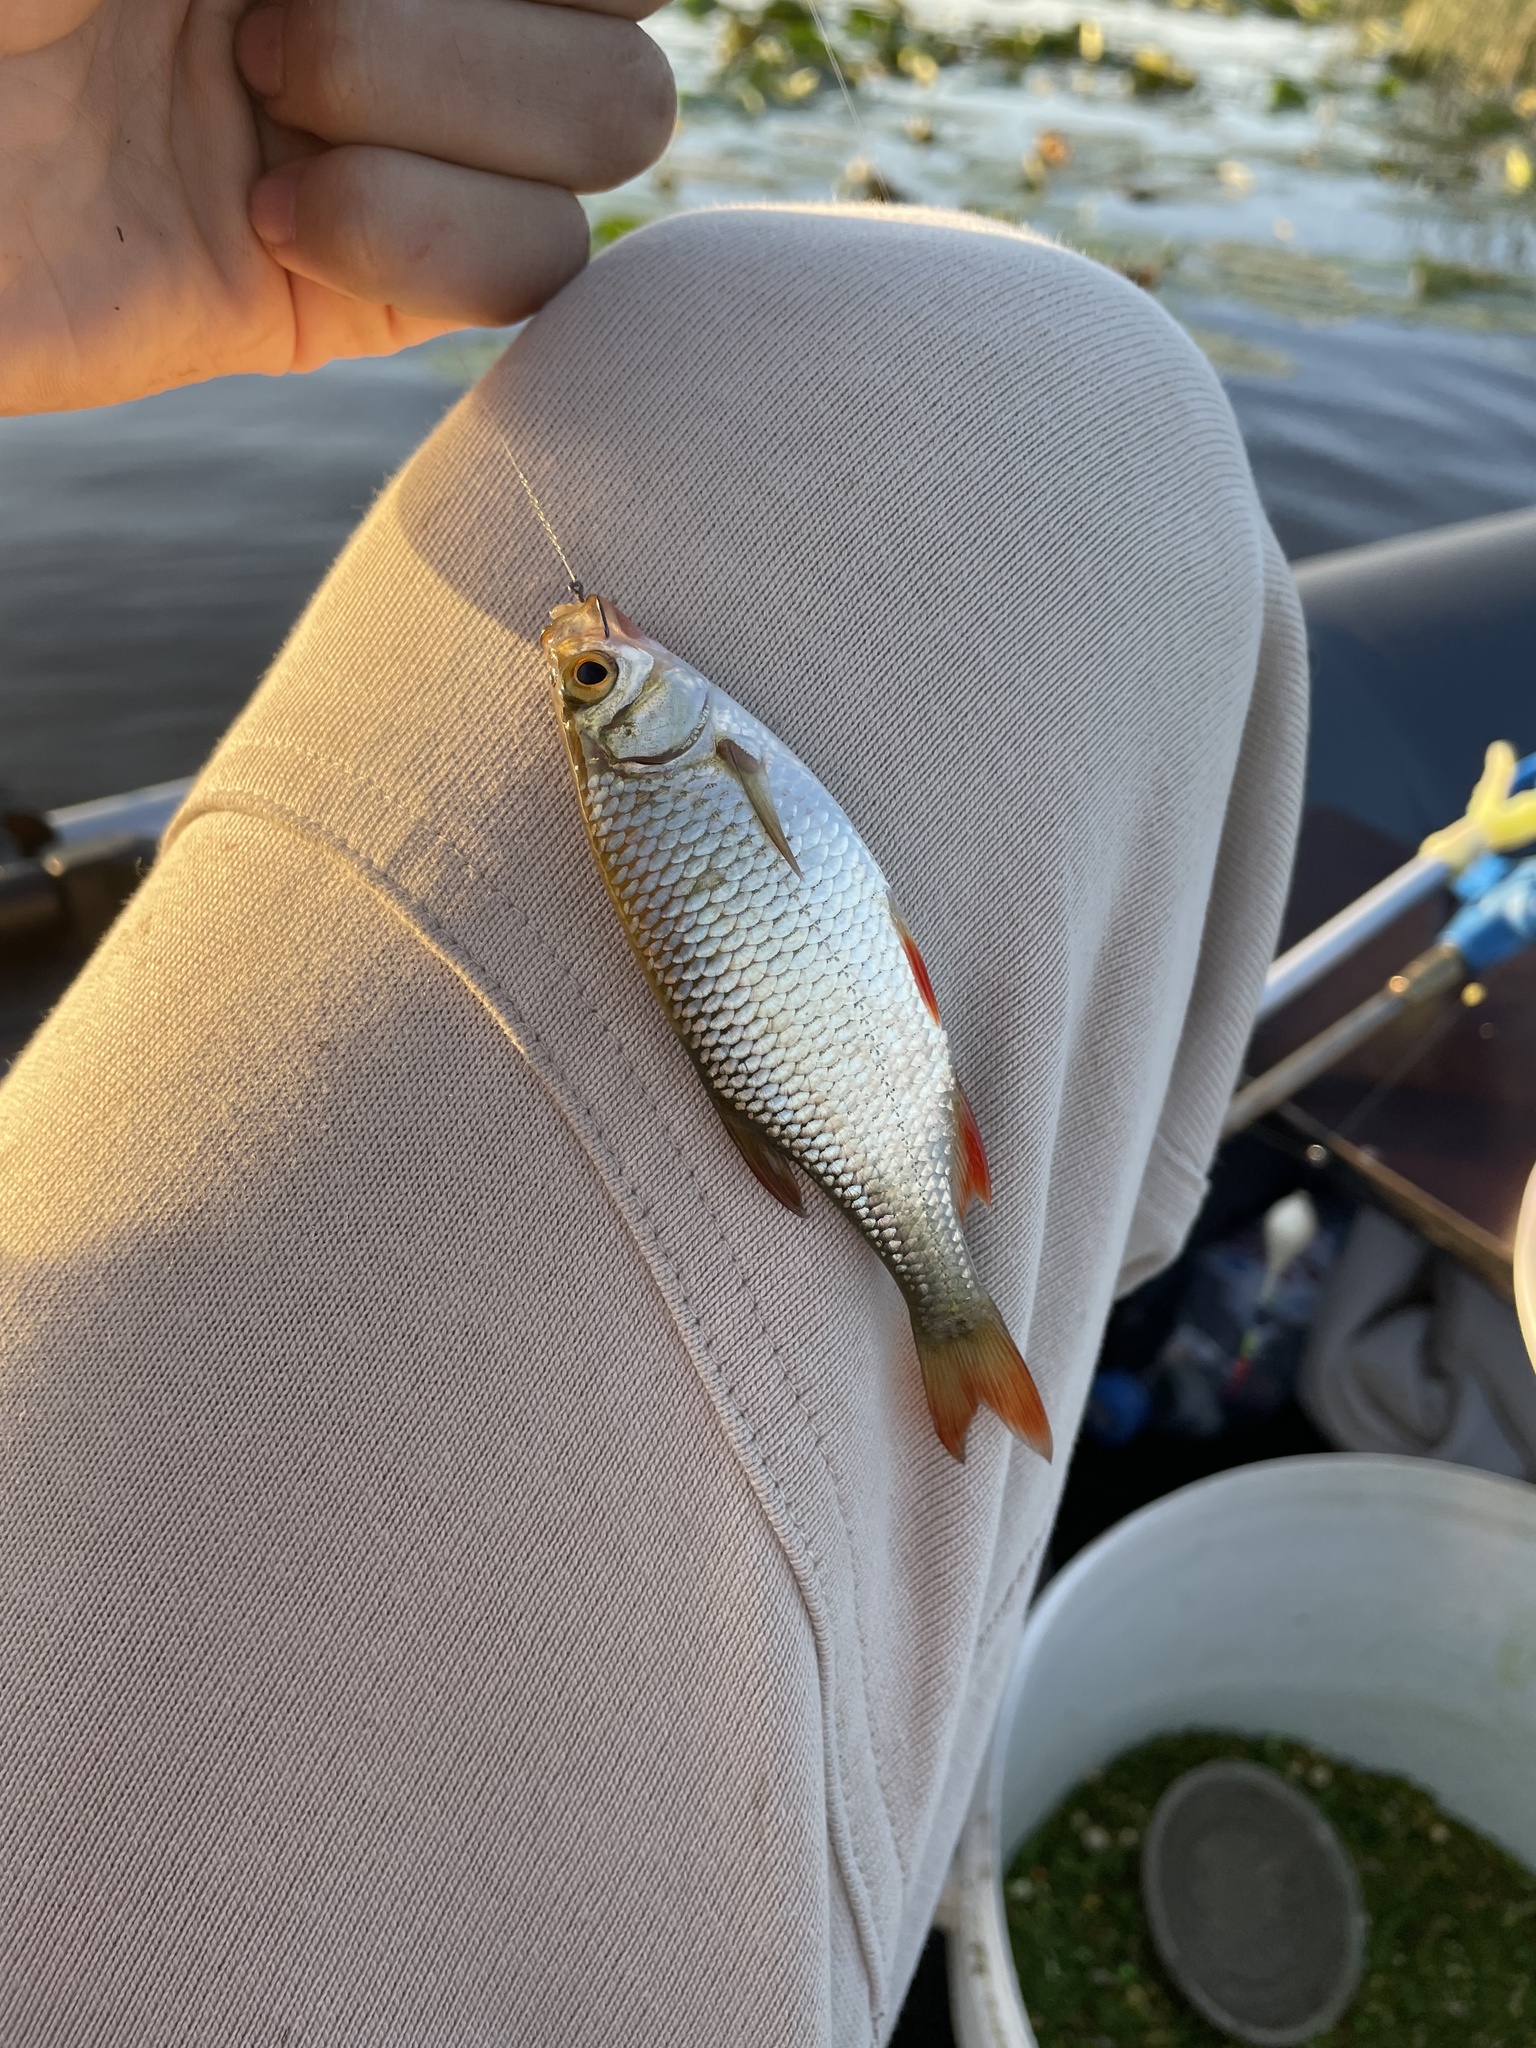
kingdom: Animalia
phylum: Chordata
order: Cypriniformes
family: Cyprinidae
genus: Scardinius
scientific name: Scardinius erythrophthalmus
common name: Rudd
